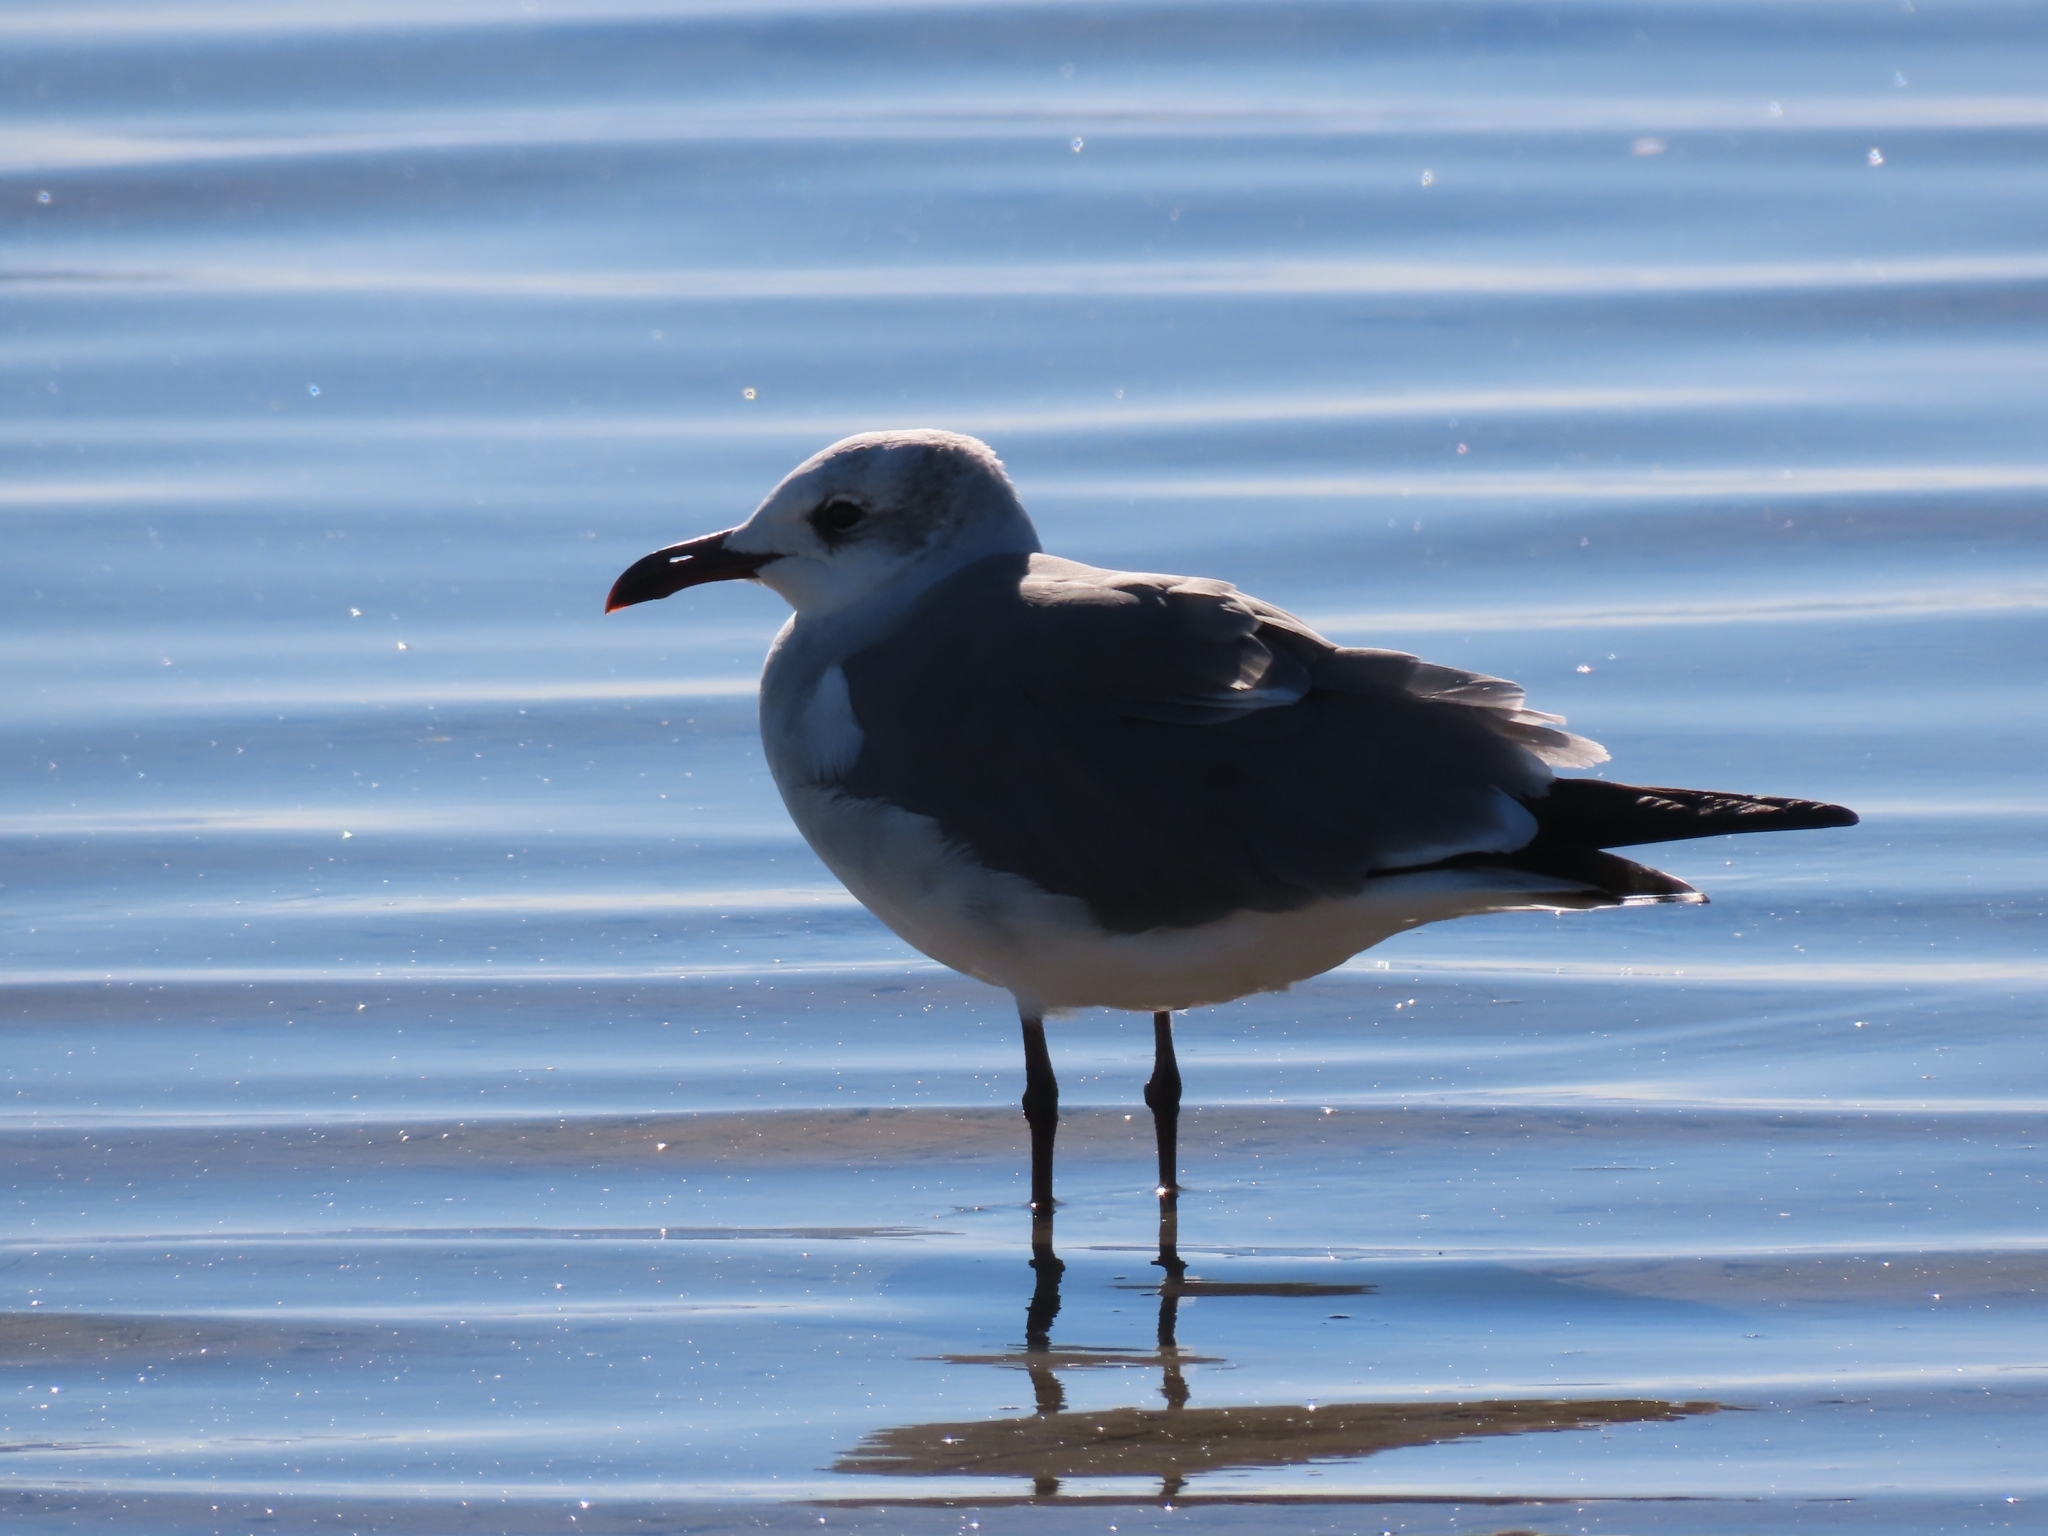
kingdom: Animalia
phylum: Chordata
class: Aves
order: Charadriiformes
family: Laridae
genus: Leucophaeus
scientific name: Leucophaeus atricilla
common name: Laughing gull
